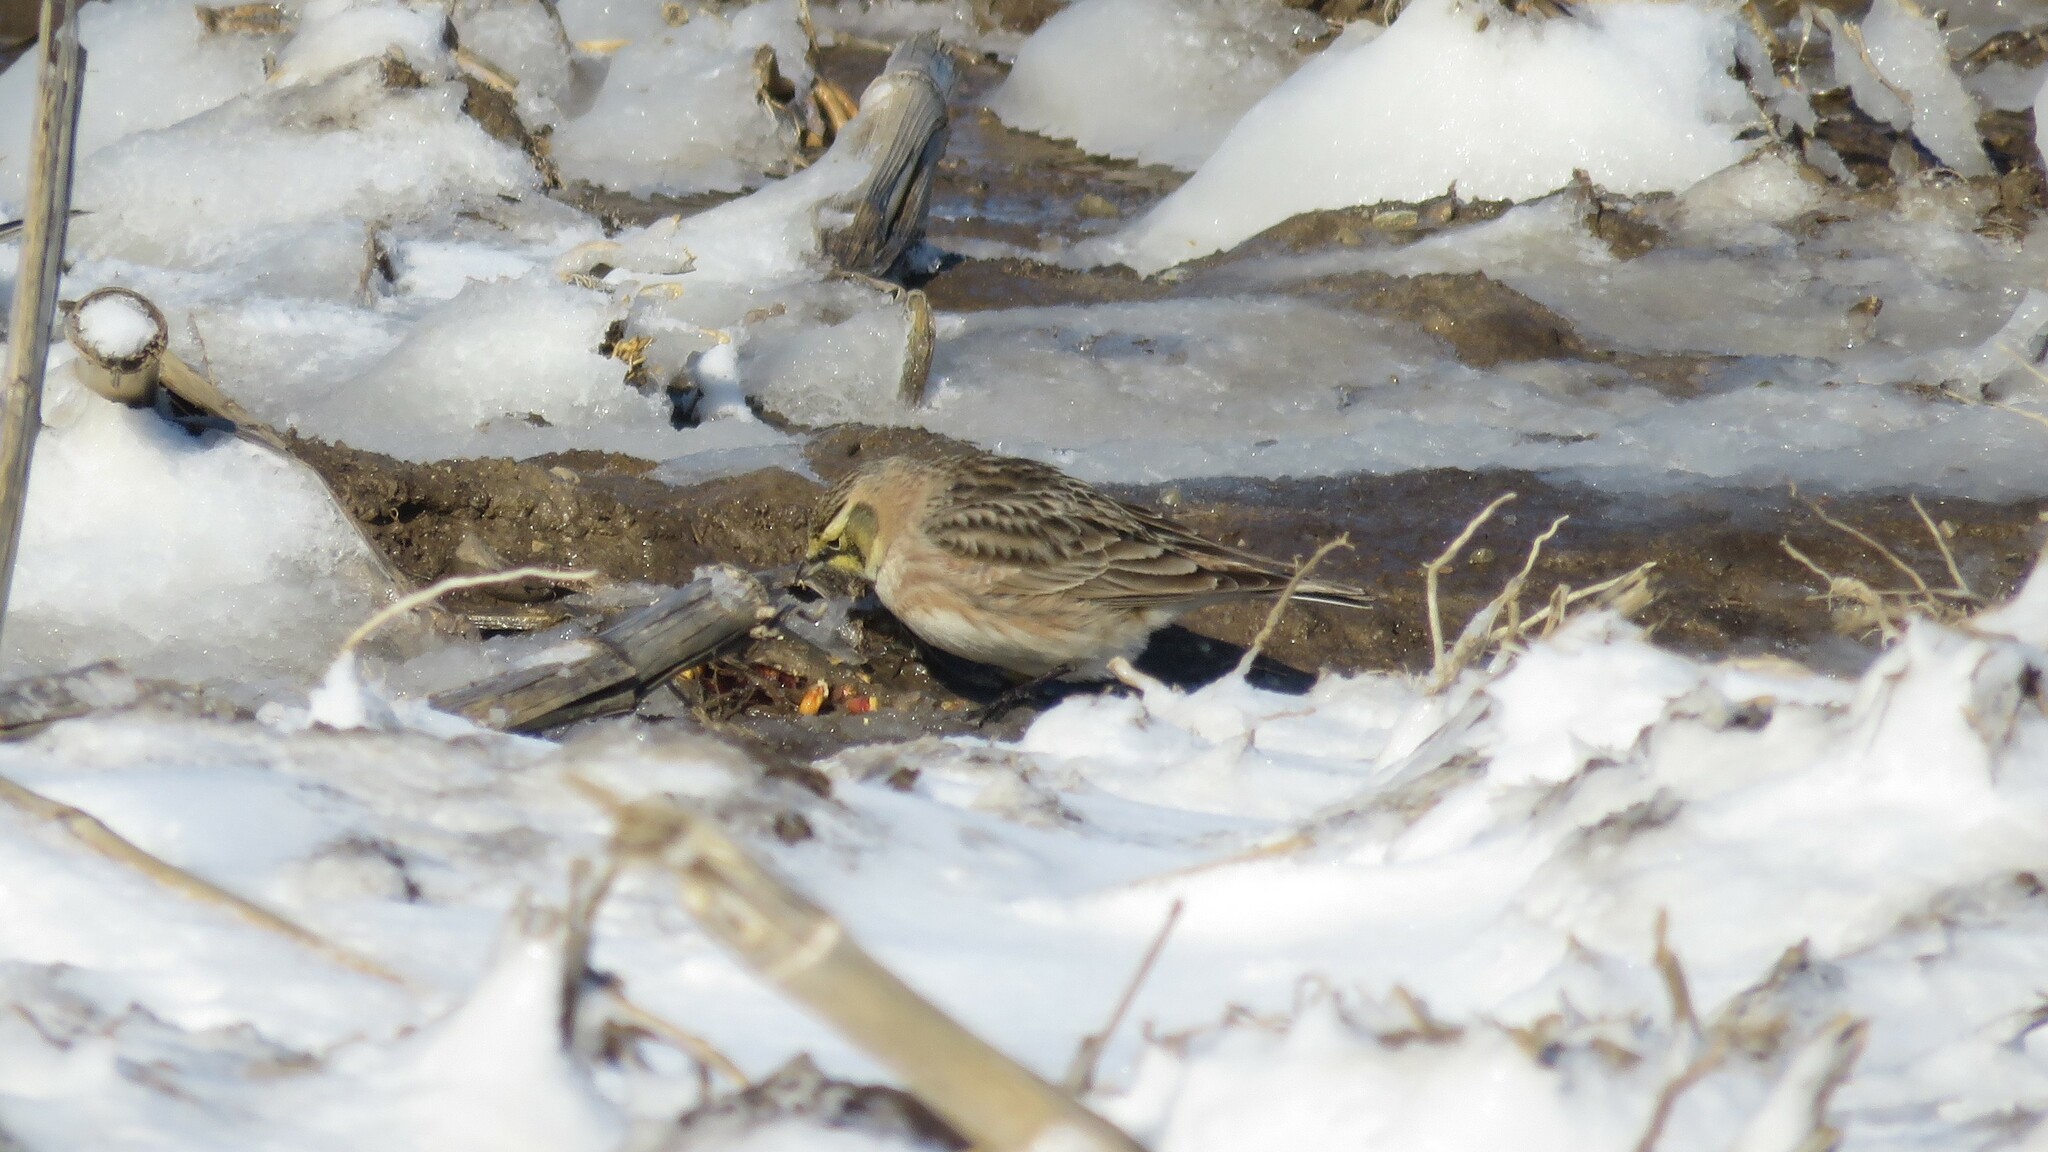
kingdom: Animalia
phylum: Chordata
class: Aves
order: Passeriformes
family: Alaudidae
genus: Eremophila
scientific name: Eremophila alpestris
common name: Horned lark
